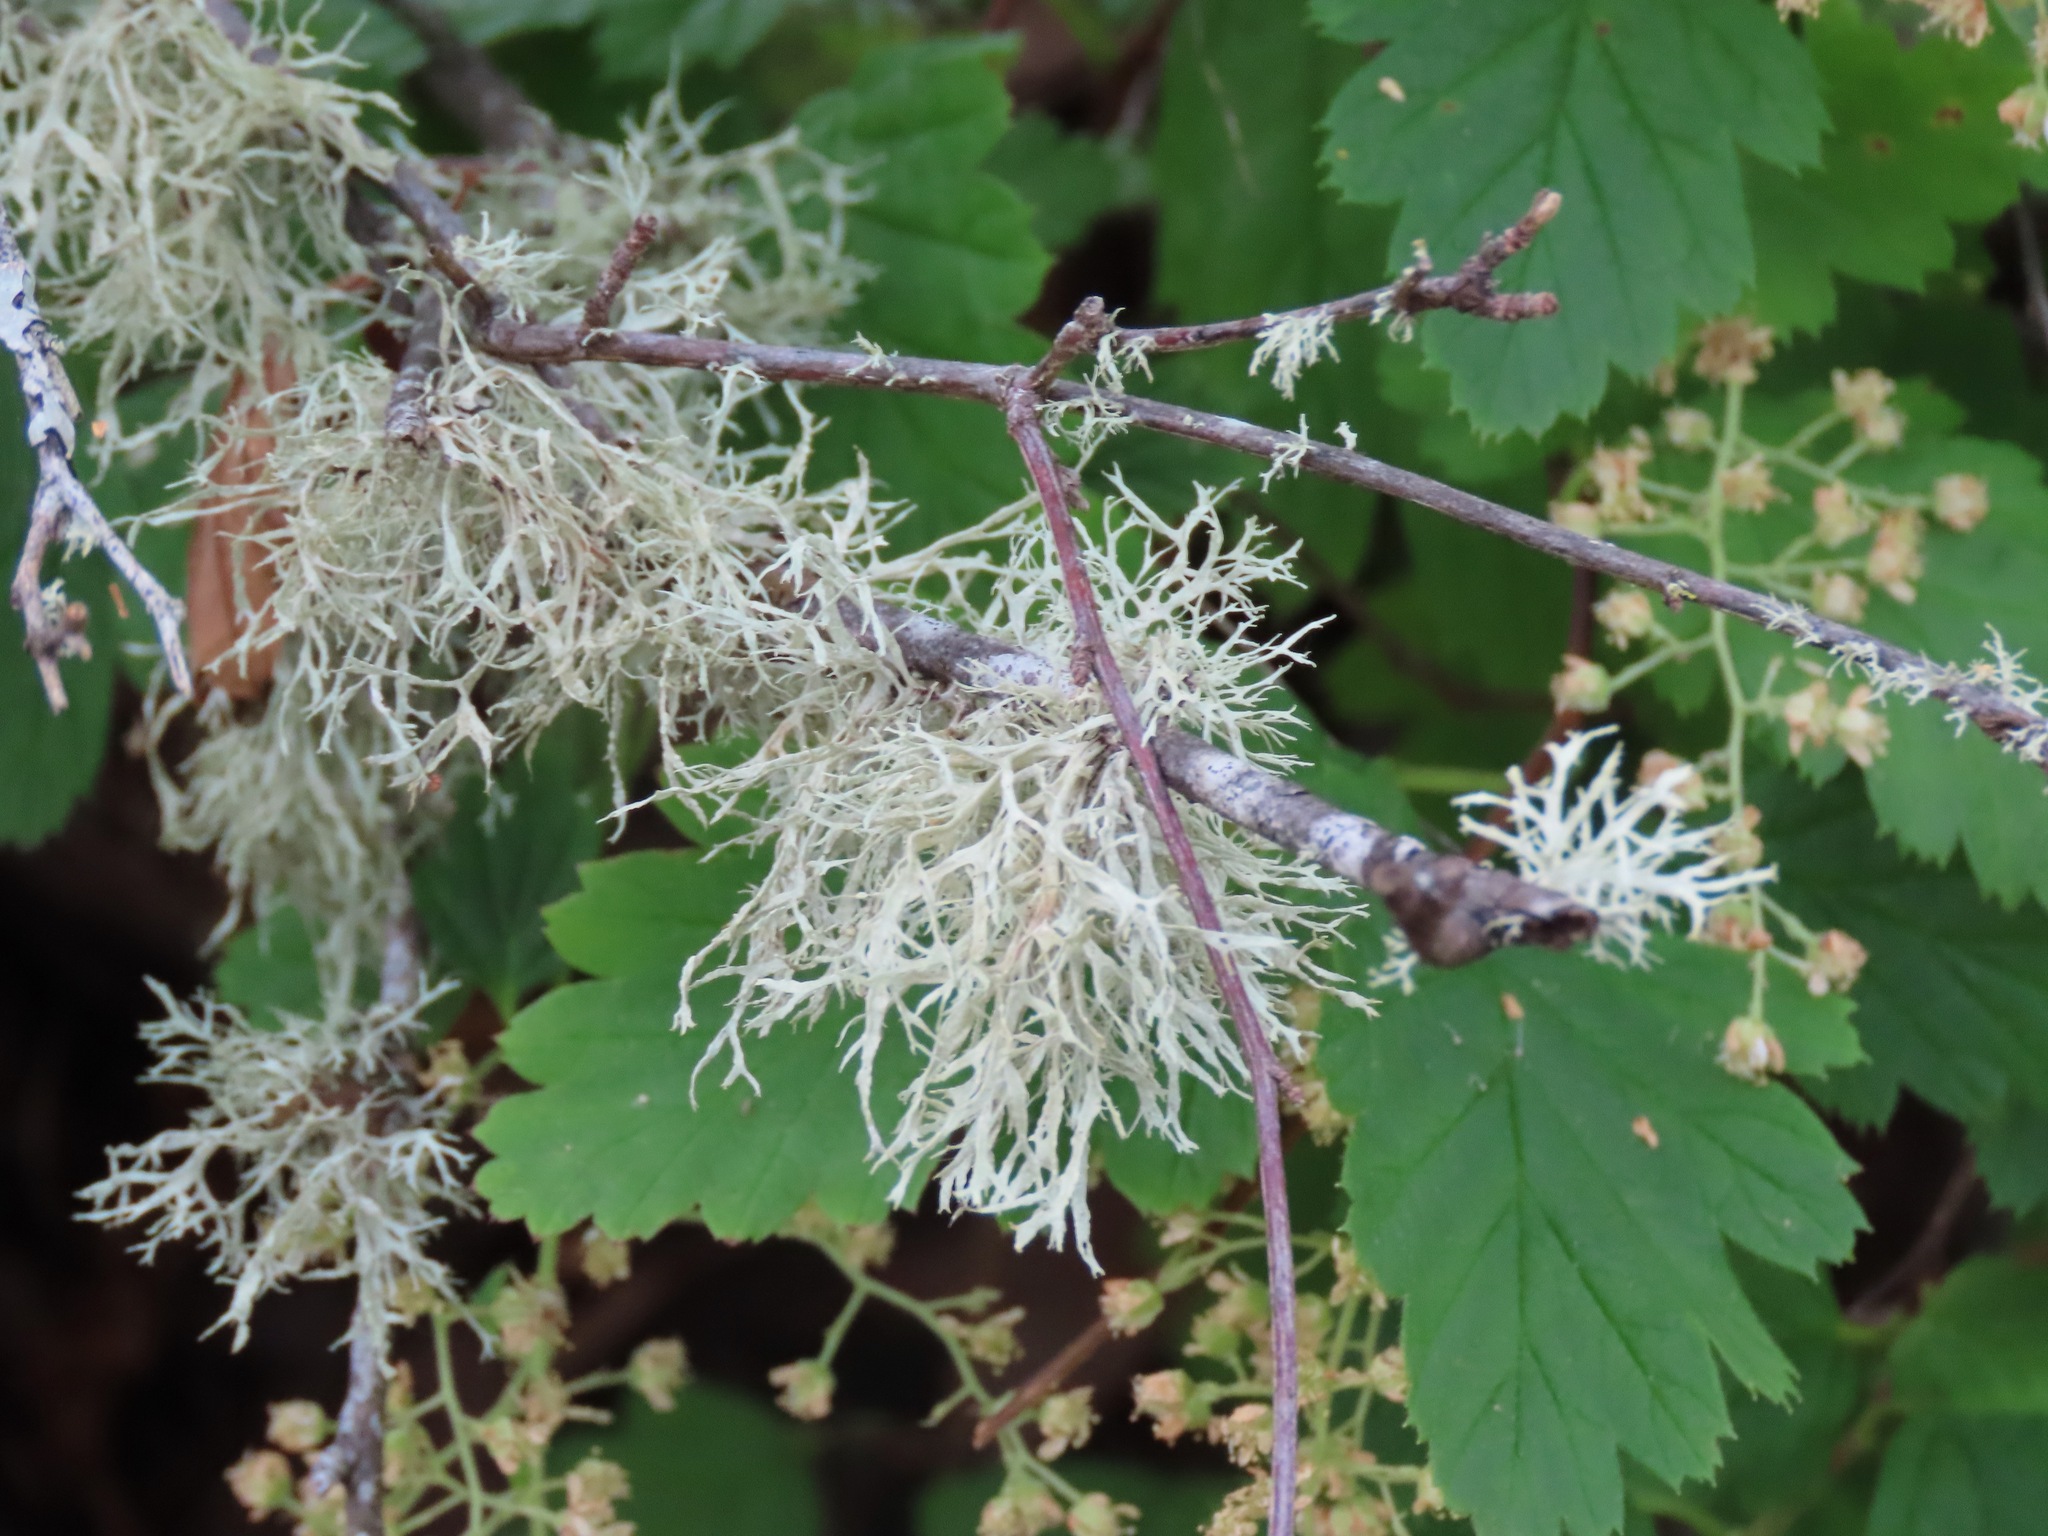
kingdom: Fungi
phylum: Ascomycota
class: Lecanoromycetes
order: Lecanorales
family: Ramalinaceae
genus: Ramalina
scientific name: Ramalina farinacea
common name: Farinose cartilage lichen
